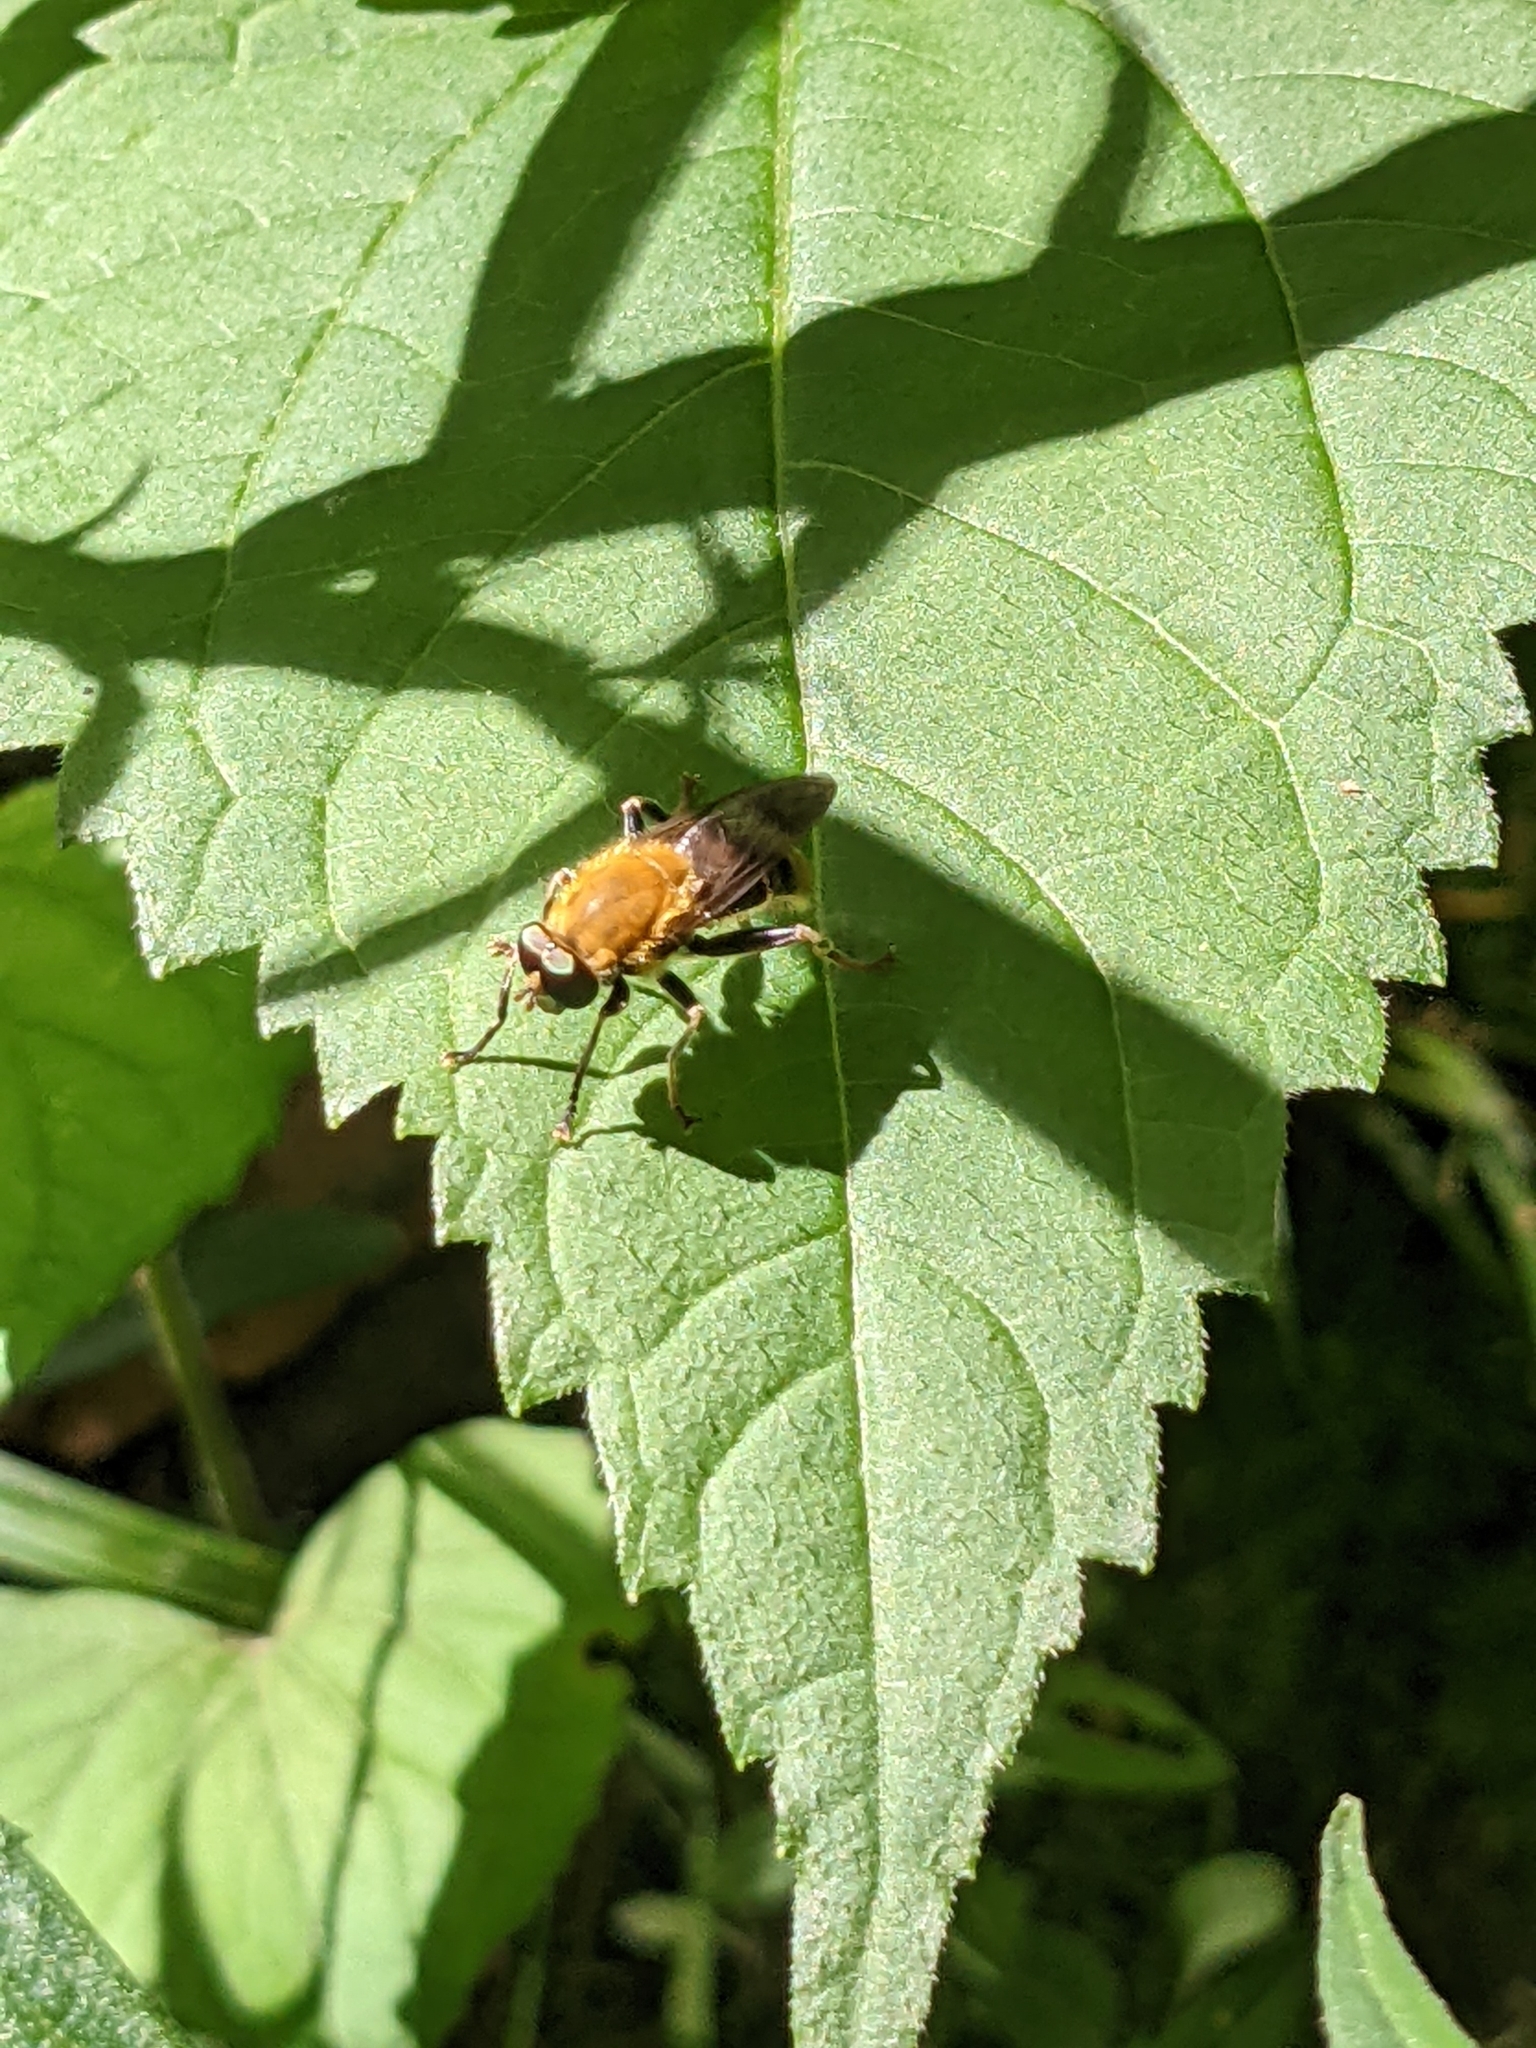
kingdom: Animalia
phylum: Arthropoda
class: Insecta
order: Diptera
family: Syrphidae
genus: Pterallastes
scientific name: Pterallastes thoracicus
